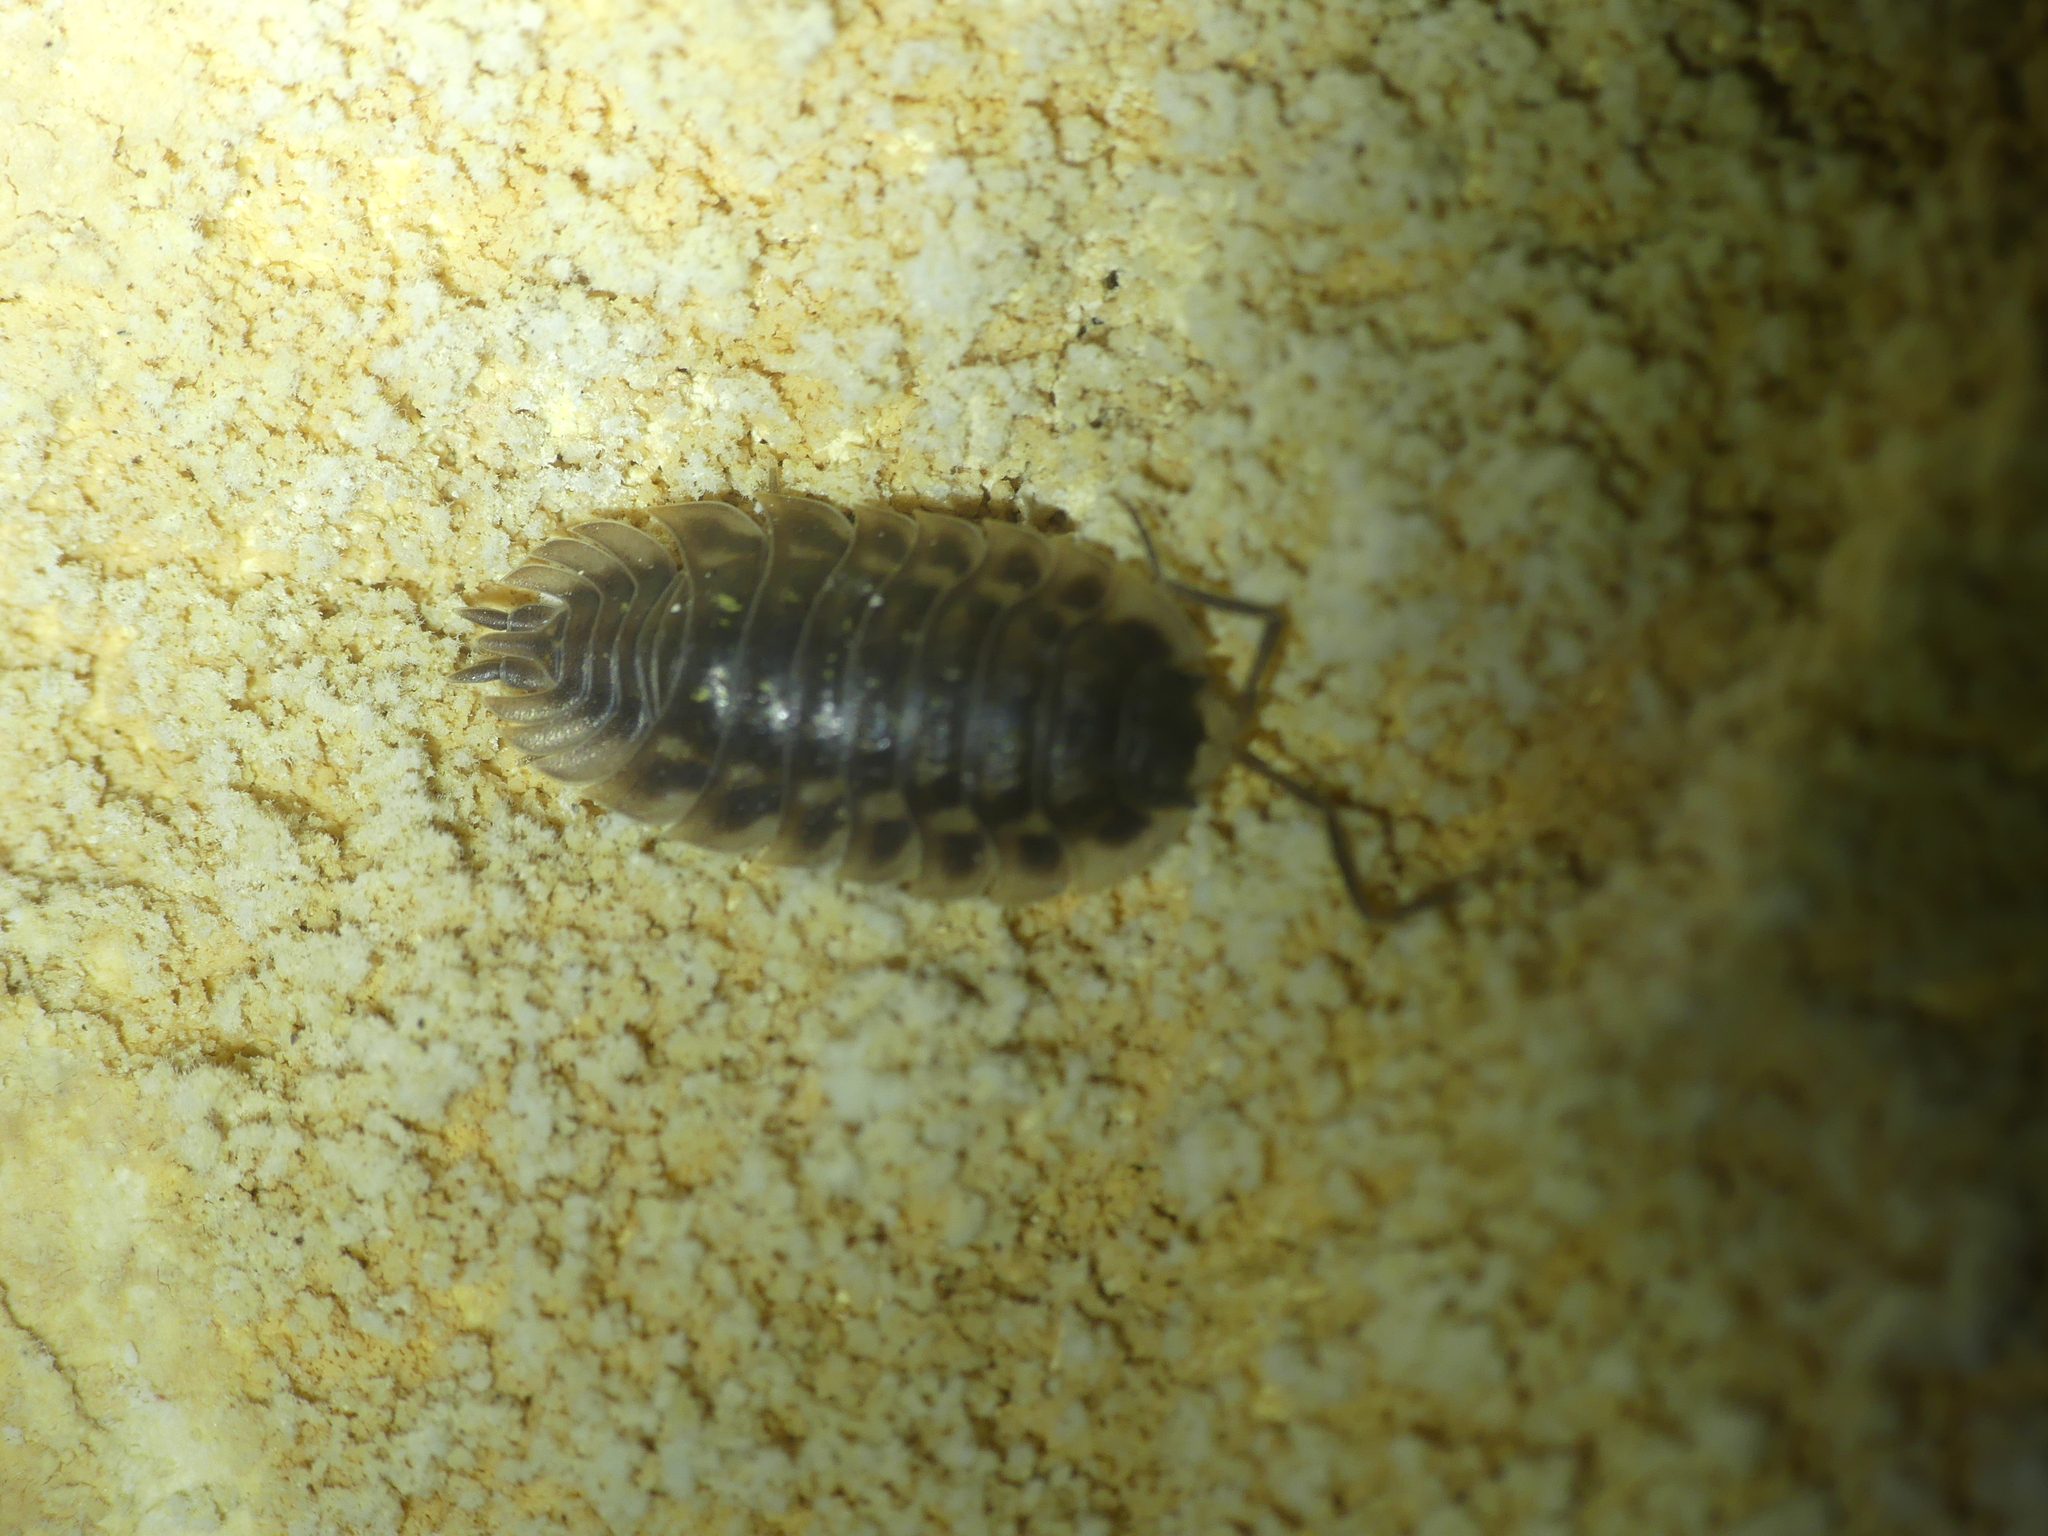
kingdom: Animalia
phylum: Arthropoda
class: Malacostraca
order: Isopoda
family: Oniscidae
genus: Oniscus
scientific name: Oniscus asellus
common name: Common shiny woodlouse
